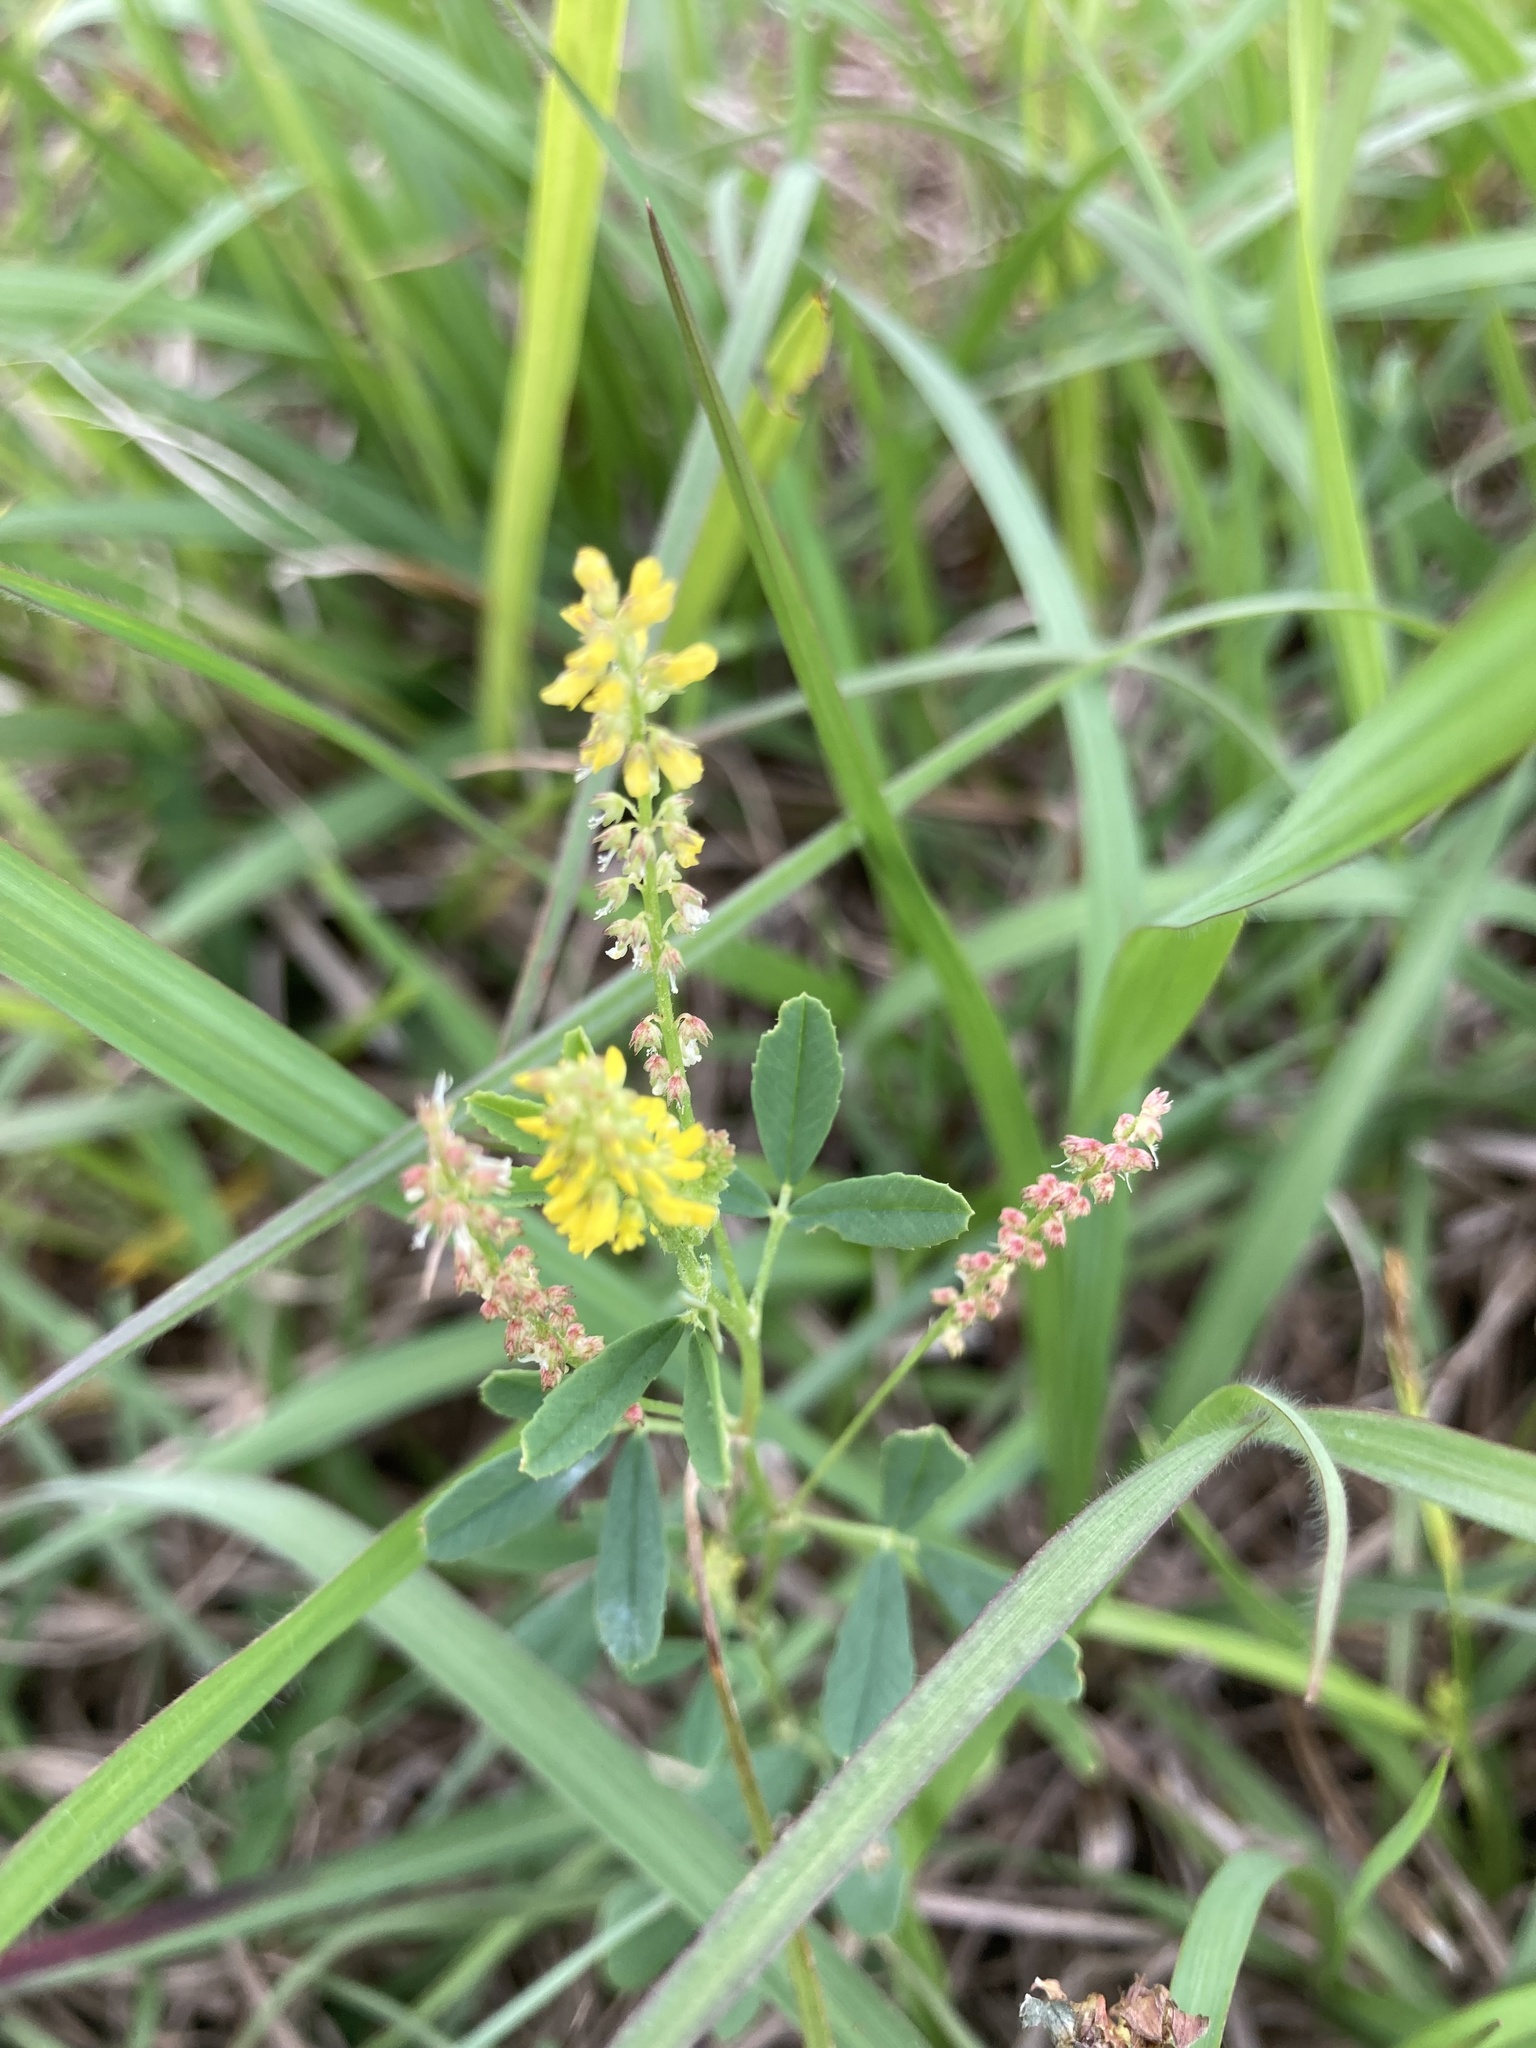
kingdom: Plantae
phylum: Tracheophyta
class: Magnoliopsida
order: Fabales
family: Fabaceae
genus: Melilotus
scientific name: Melilotus indicus
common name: Small melilot
